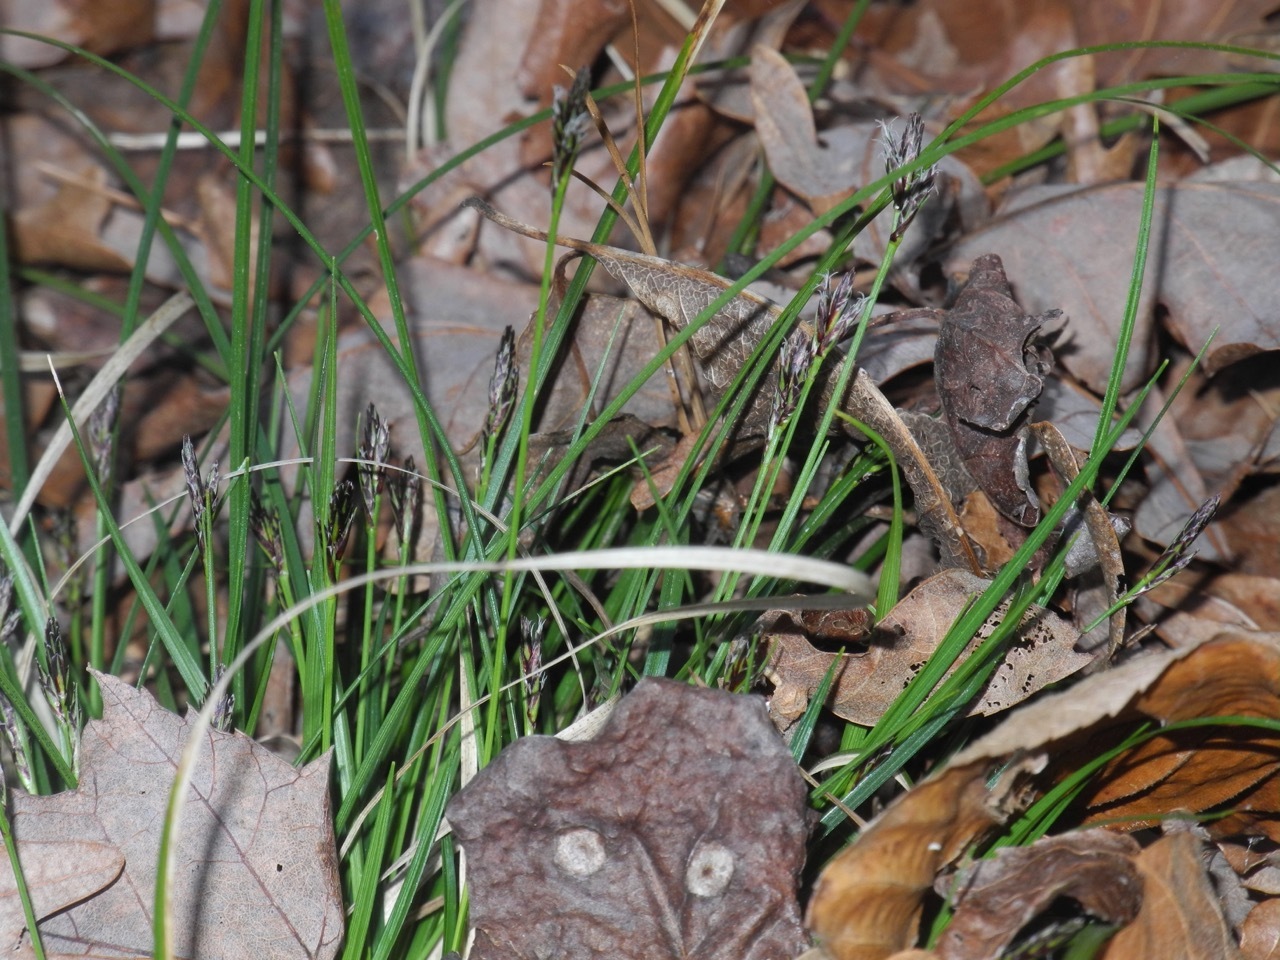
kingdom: Plantae
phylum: Tracheophyta
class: Liliopsida
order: Poales
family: Cyperaceae
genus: Carex
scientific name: Carex communis
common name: Colonial oak sedge
